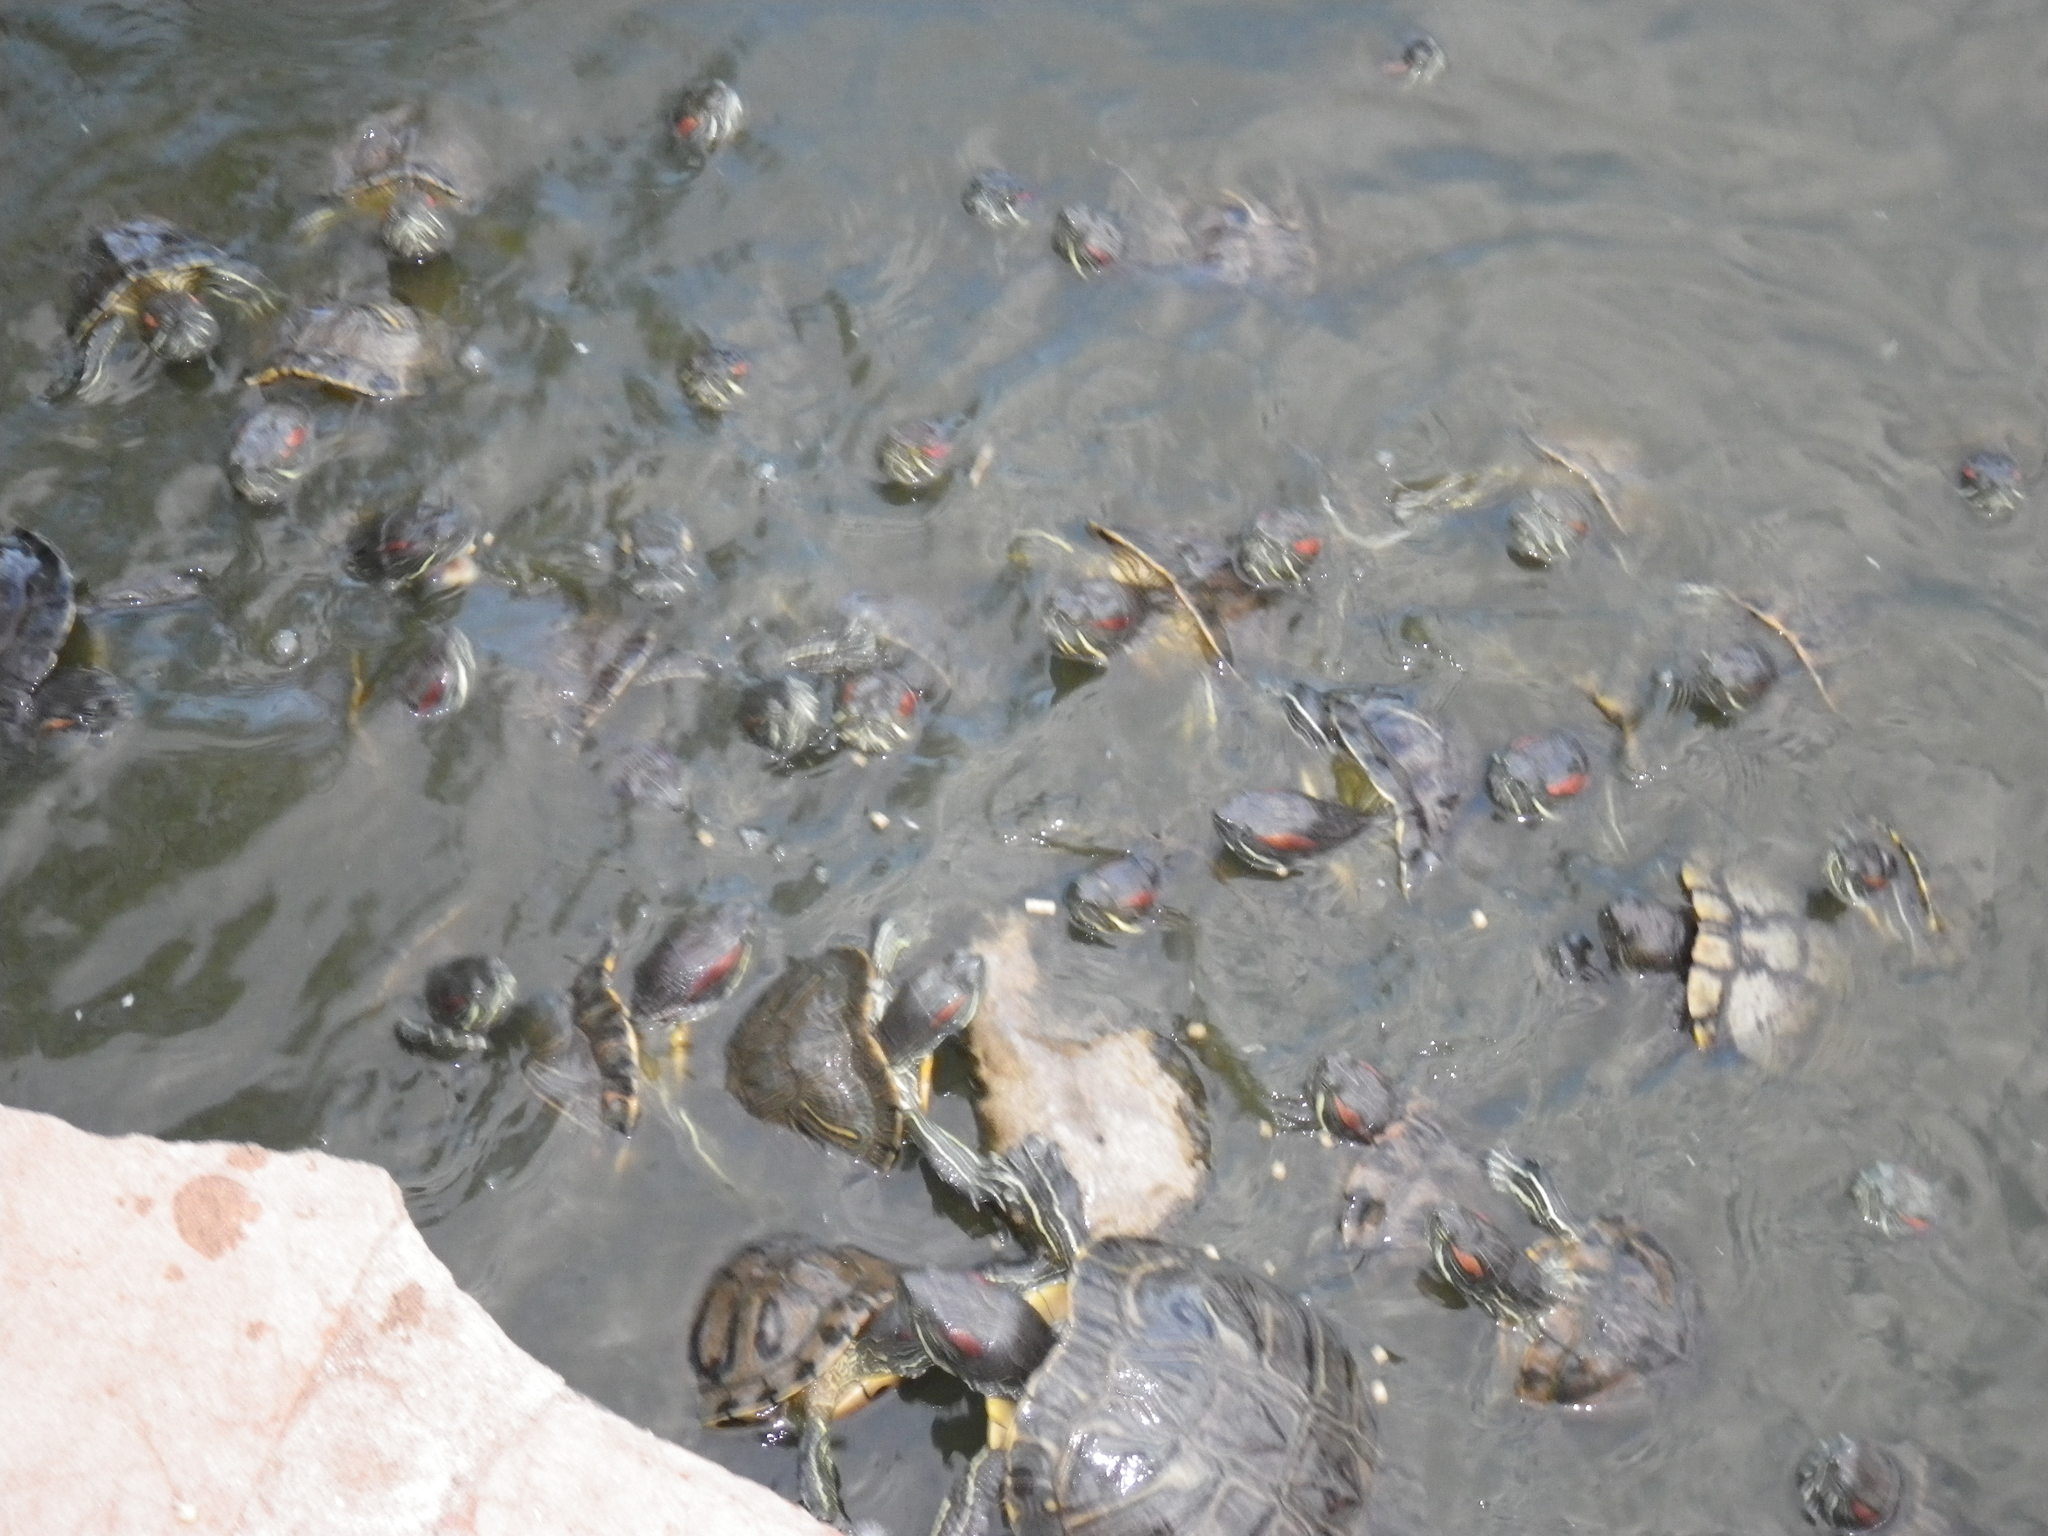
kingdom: Animalia
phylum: Chordata
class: Testudines
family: Emydidae
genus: Trachemys
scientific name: Trachemys scripta
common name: Slider
